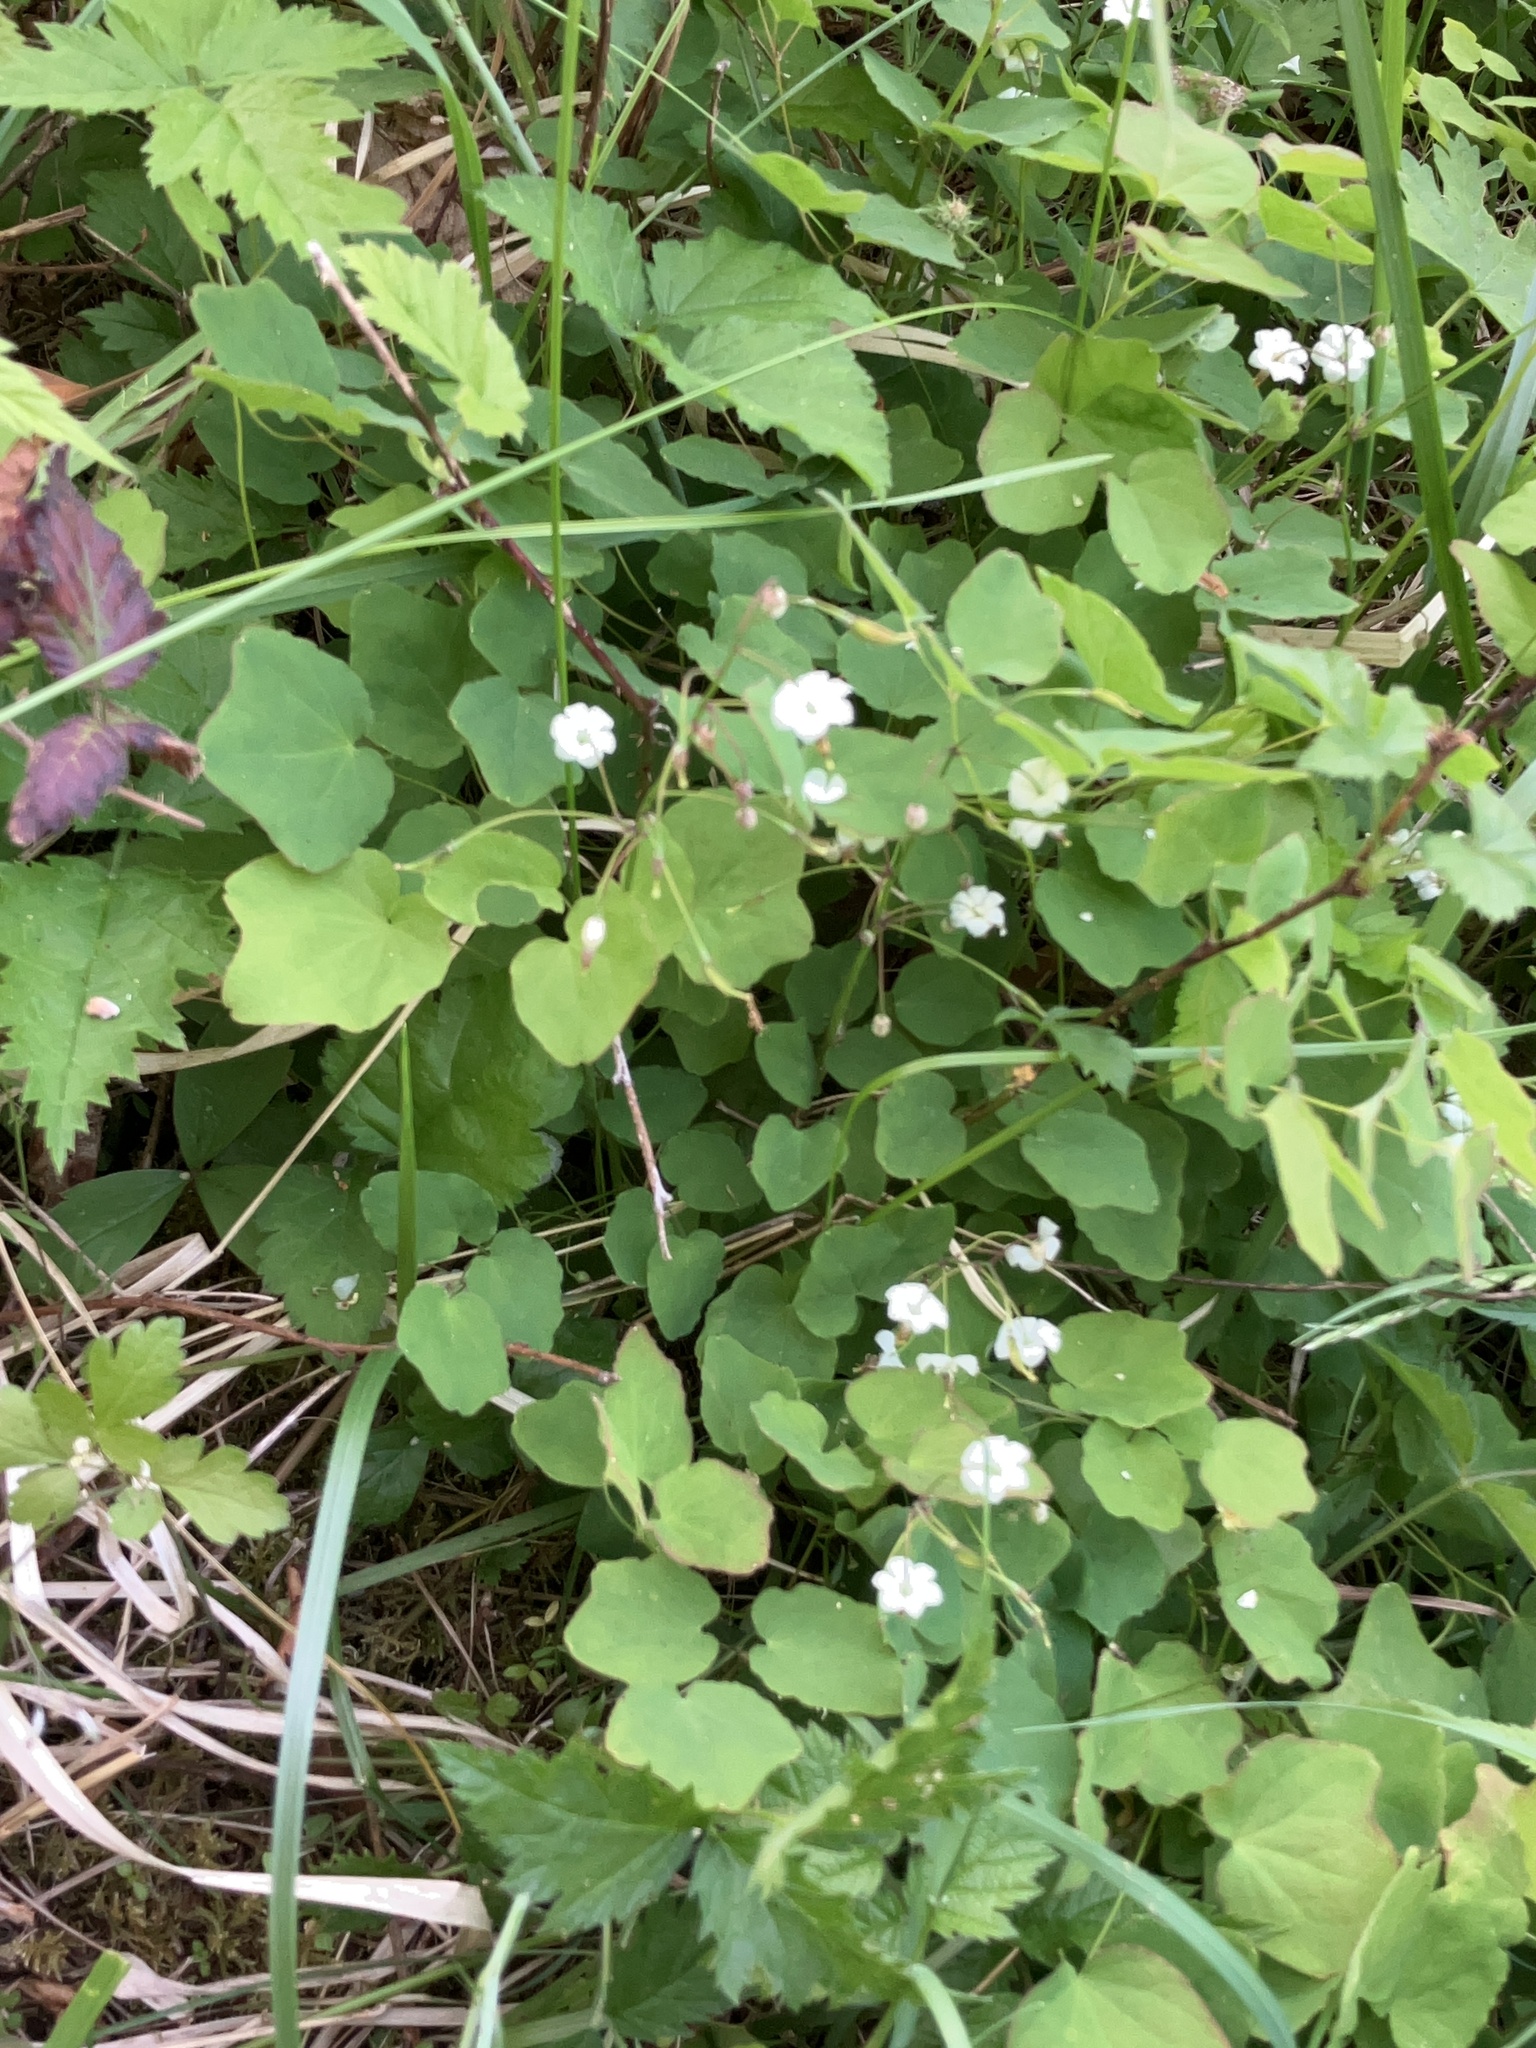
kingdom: Plantae
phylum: Tracheophyta
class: Magnoliopsida
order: Ranunculales
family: Berberidaceae
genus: Vancouveria
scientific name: Vancouveria hexandra
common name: Northern inside-out-flower
